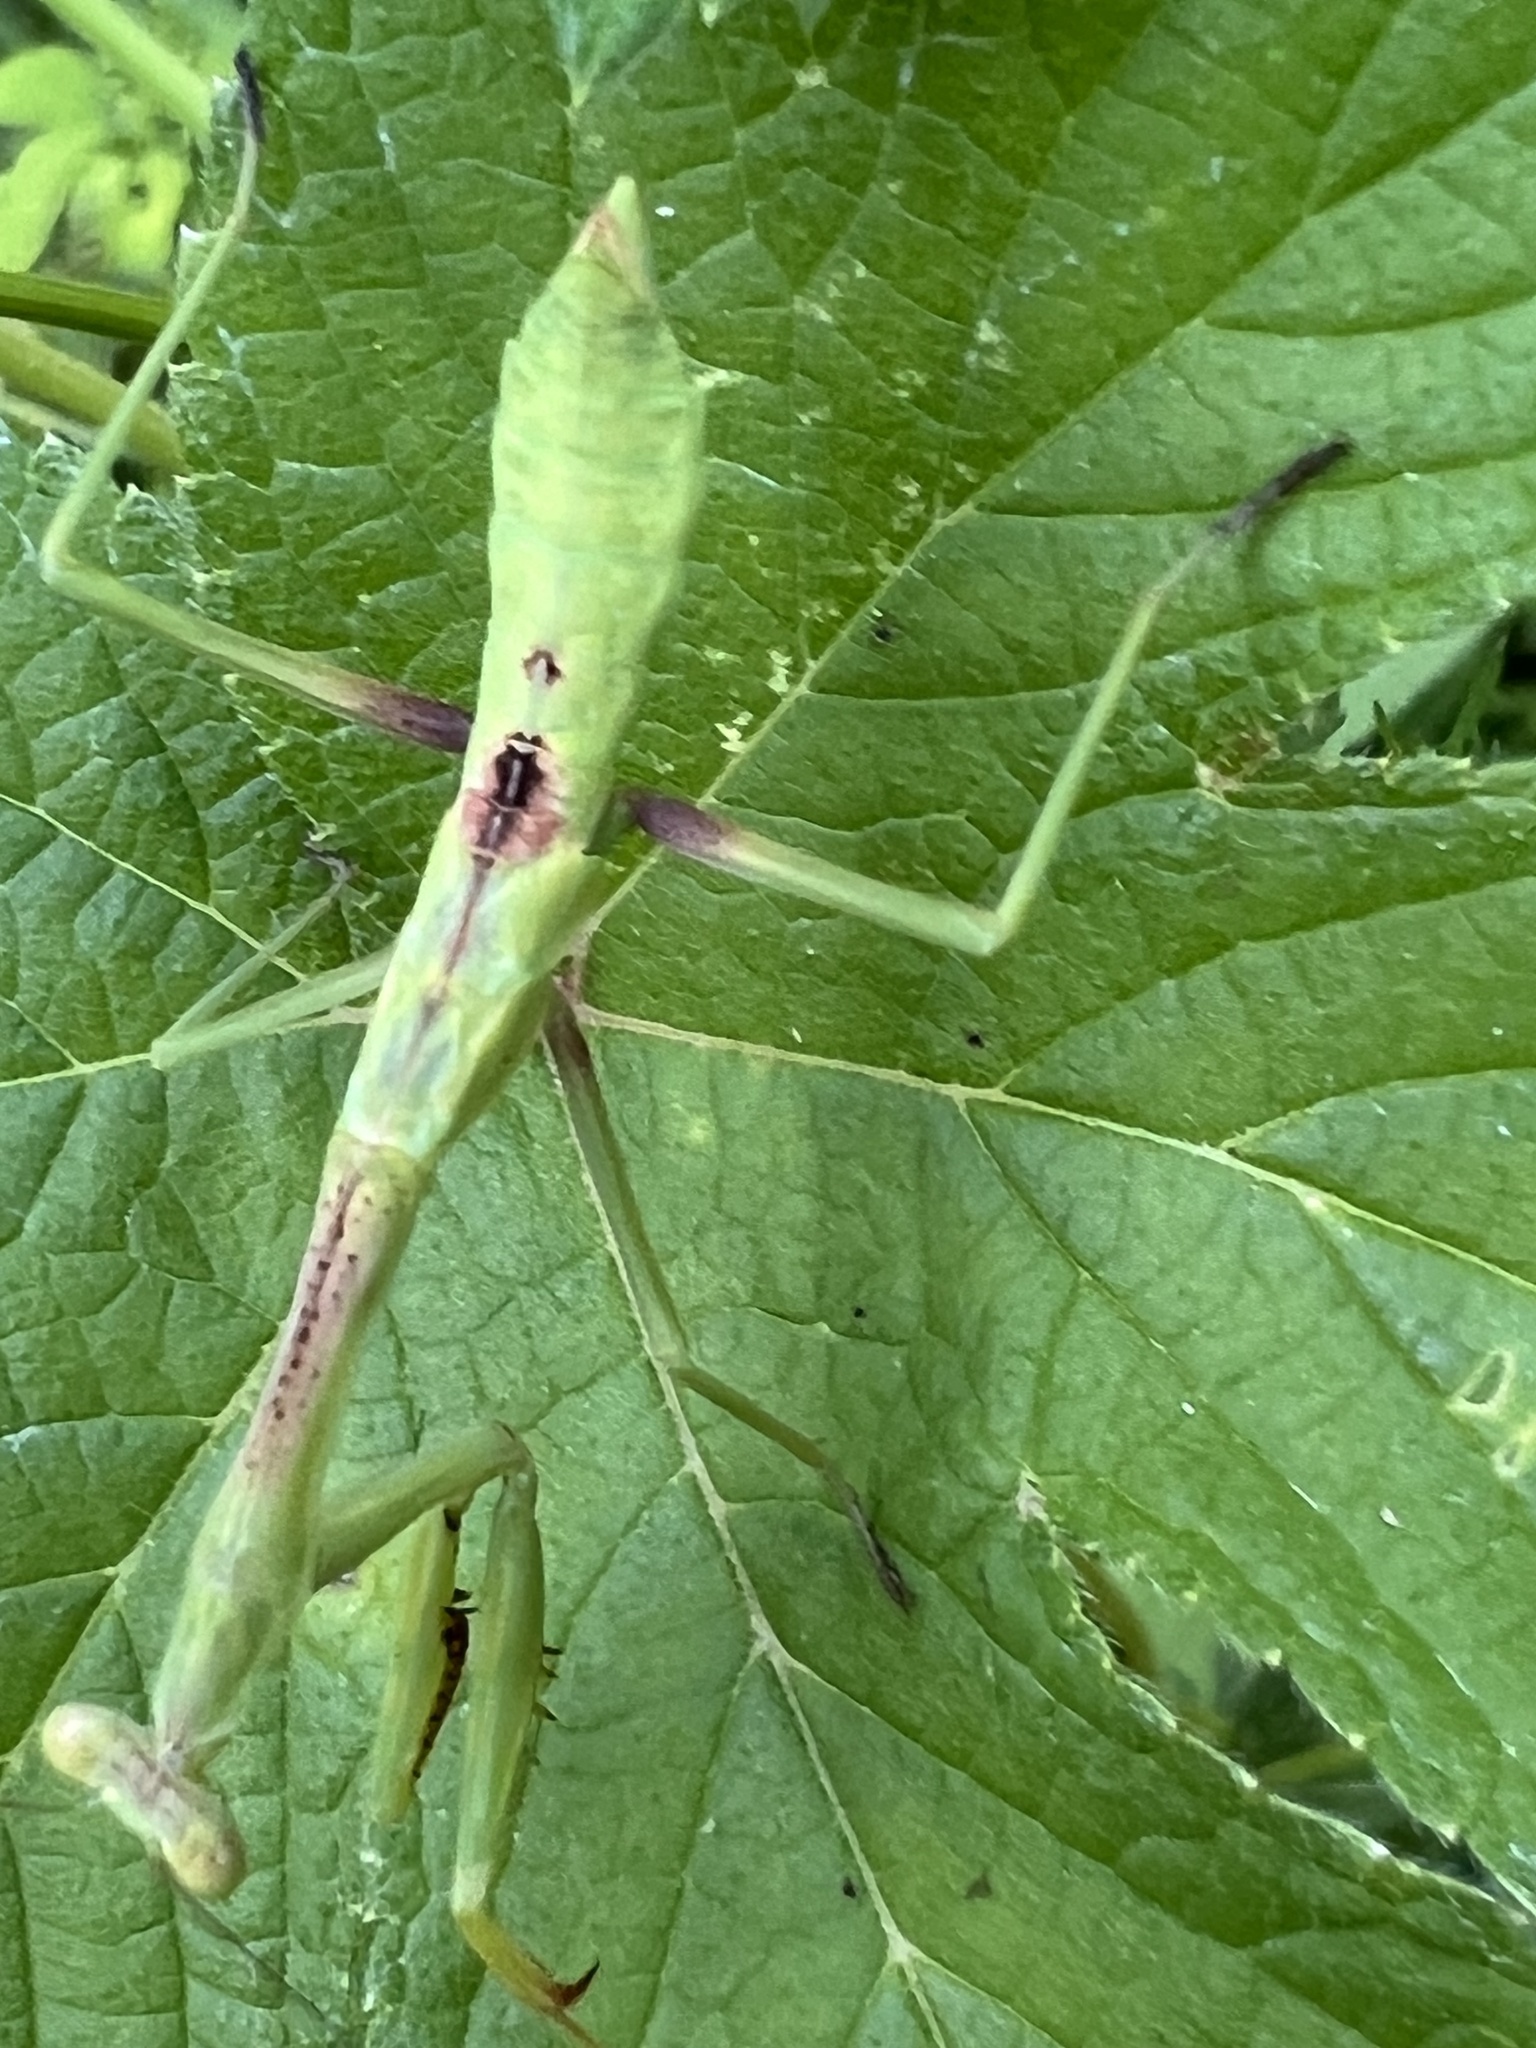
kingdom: Animalia
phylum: Arthropoda
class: Insecta
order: Mantodea
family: Mantidae
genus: Stagmomantis
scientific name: Stagmomantis carolina
